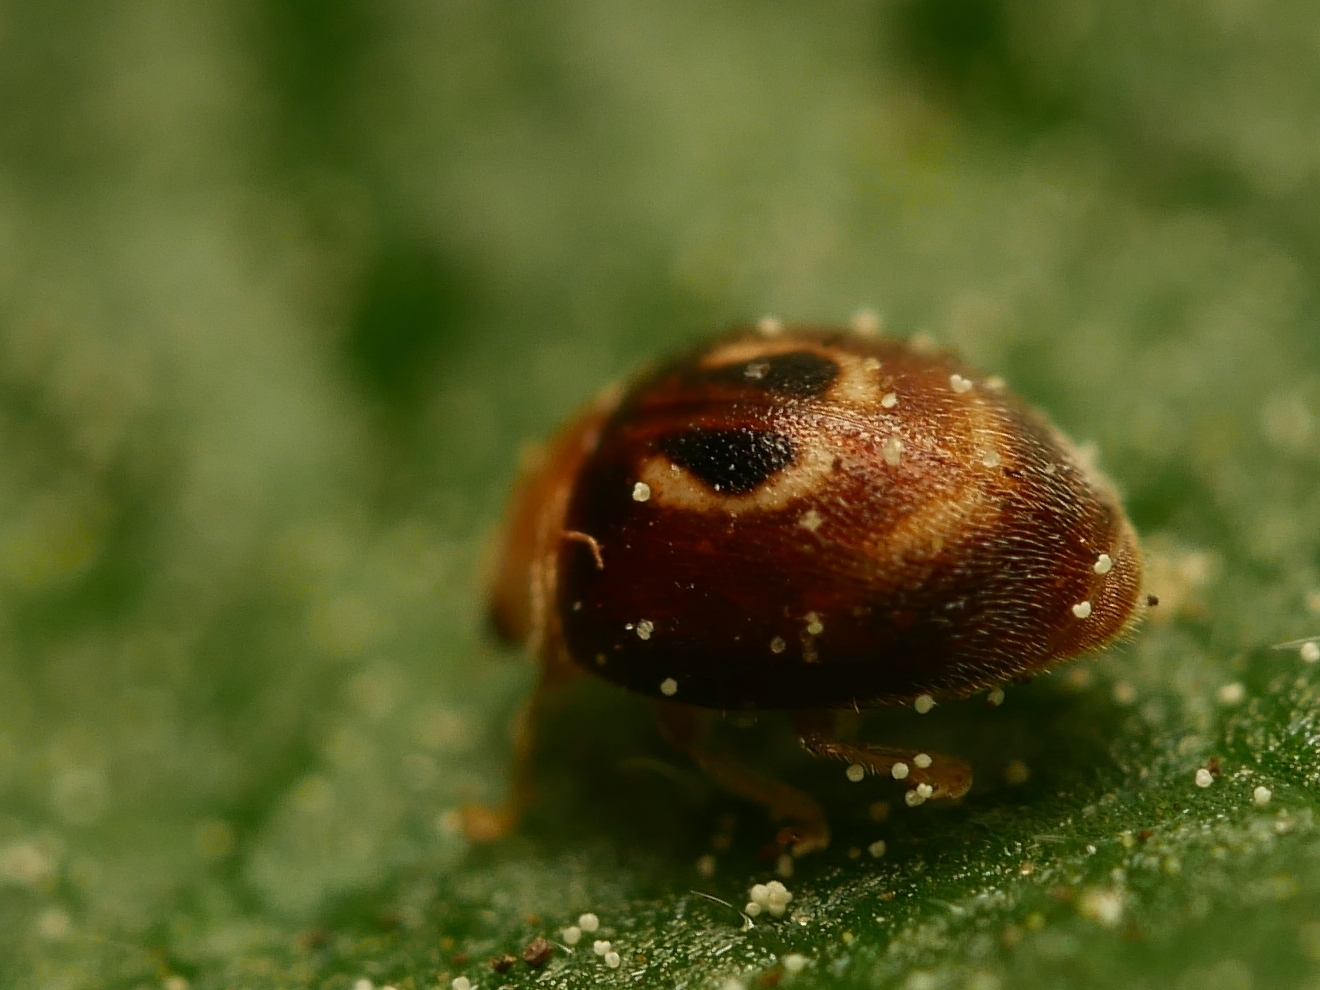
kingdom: Animalia
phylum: Arthropoda
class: Insecta
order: Coleoptera
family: Coccinellidae
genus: Clitostethus
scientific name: Clitostethus arcuatus
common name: Ladybird beetle
